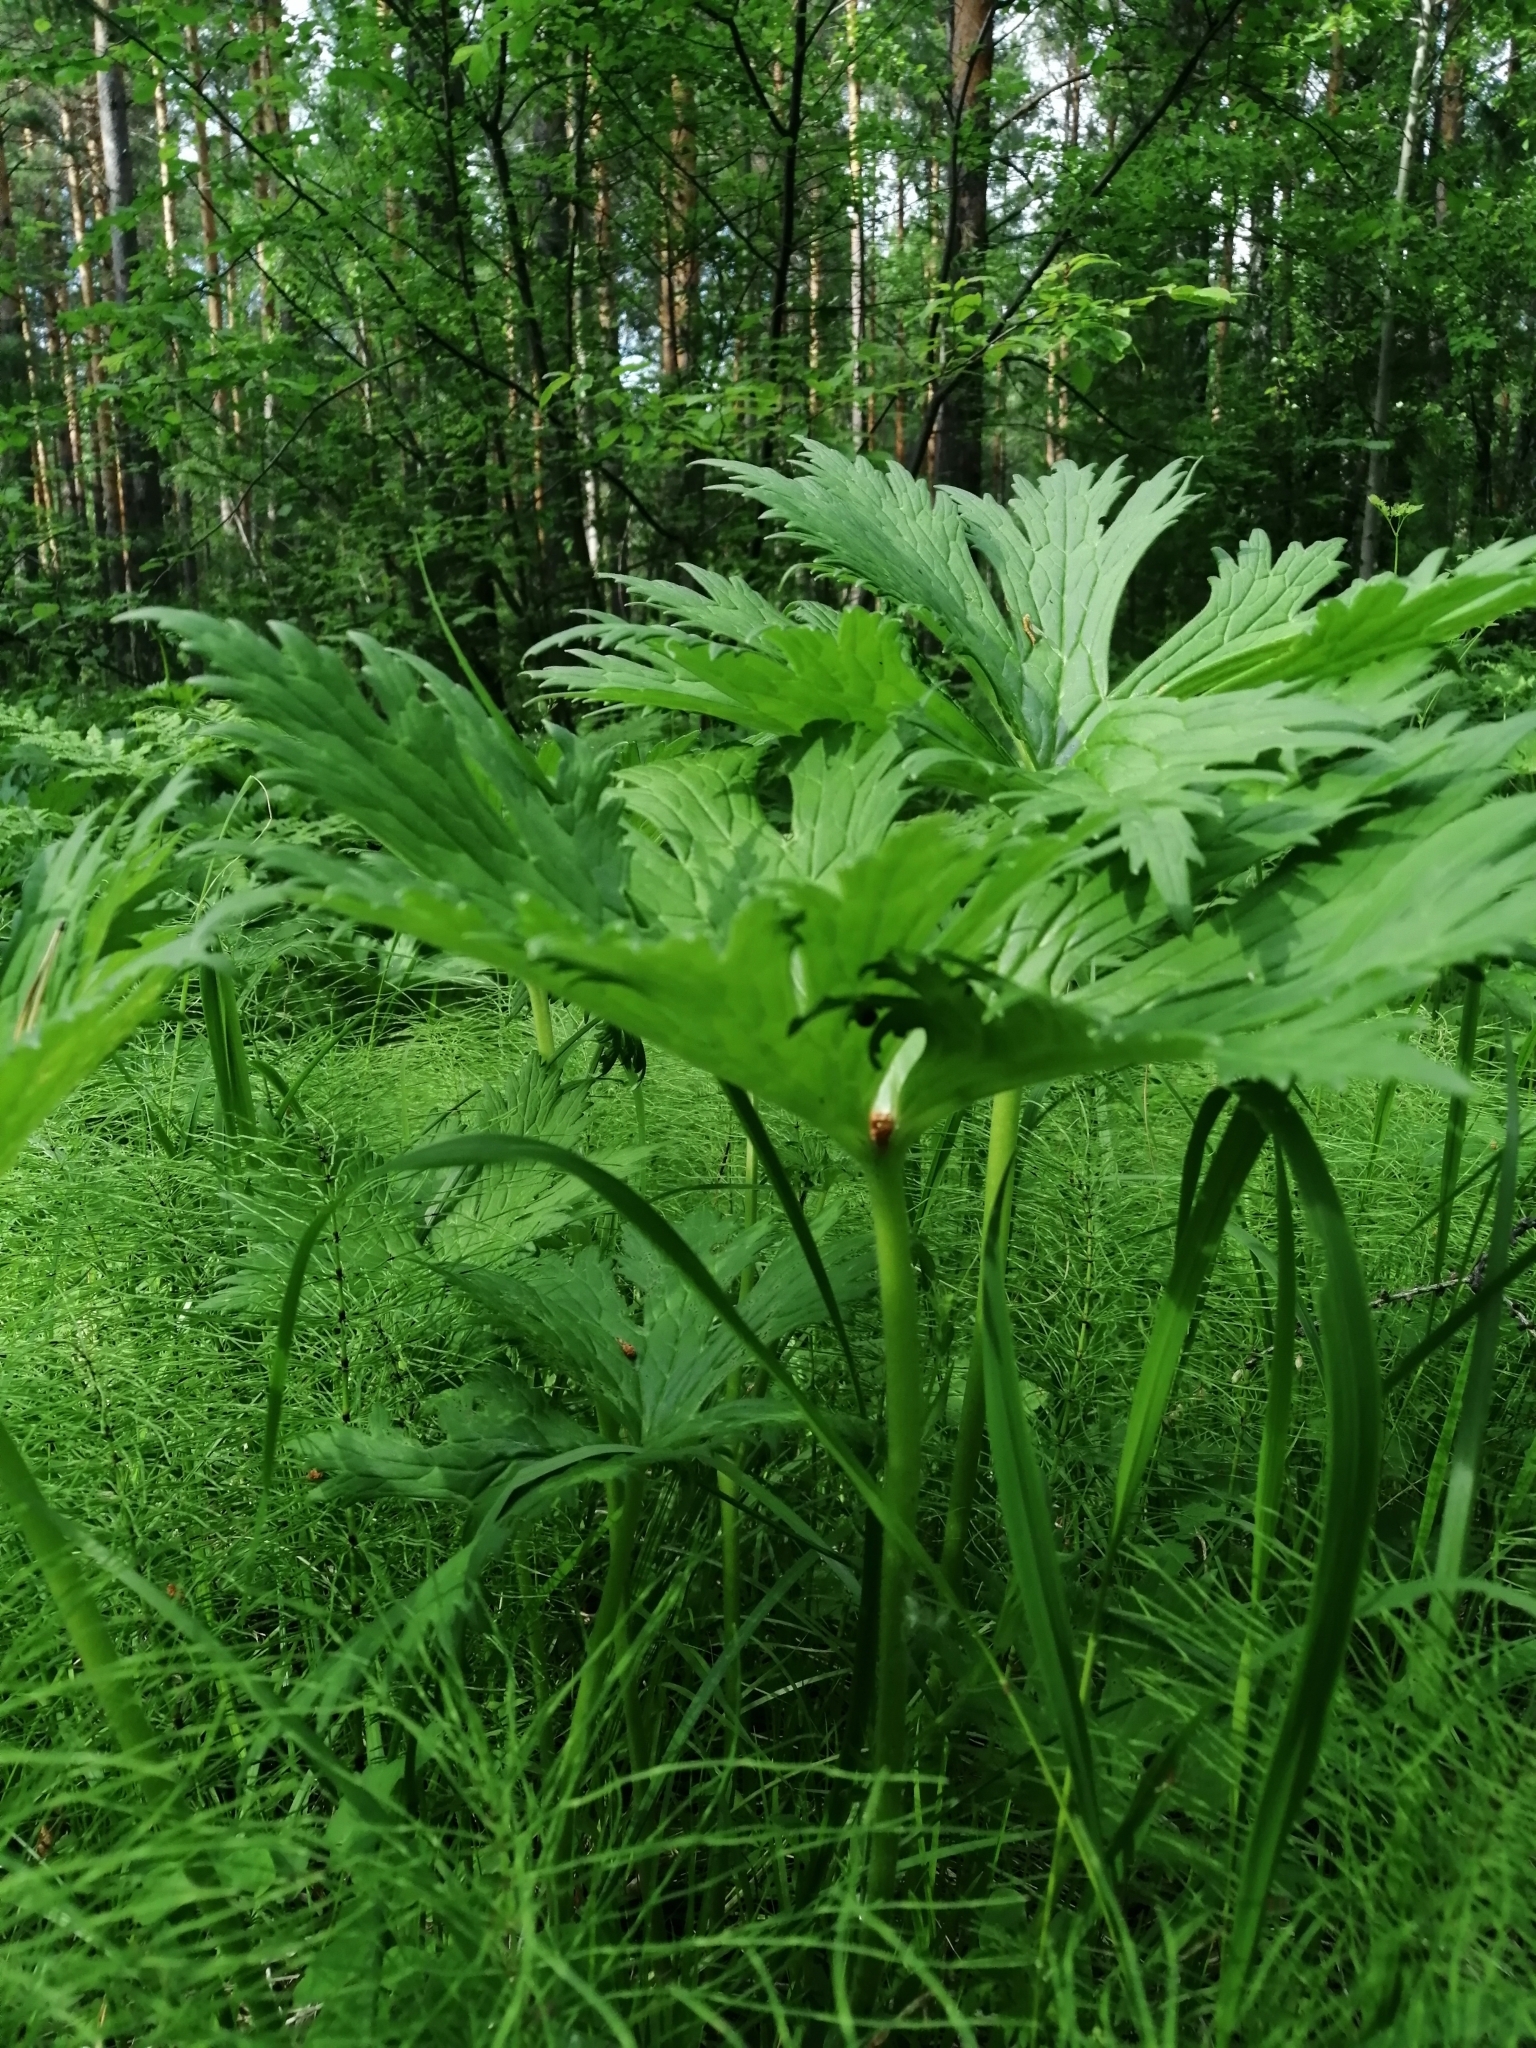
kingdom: Plantae
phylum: Tracheophyta
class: Magnoliopsida
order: Ranunculales
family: Ranunculaceae
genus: Aconitum
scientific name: Aconitum septentrionale
